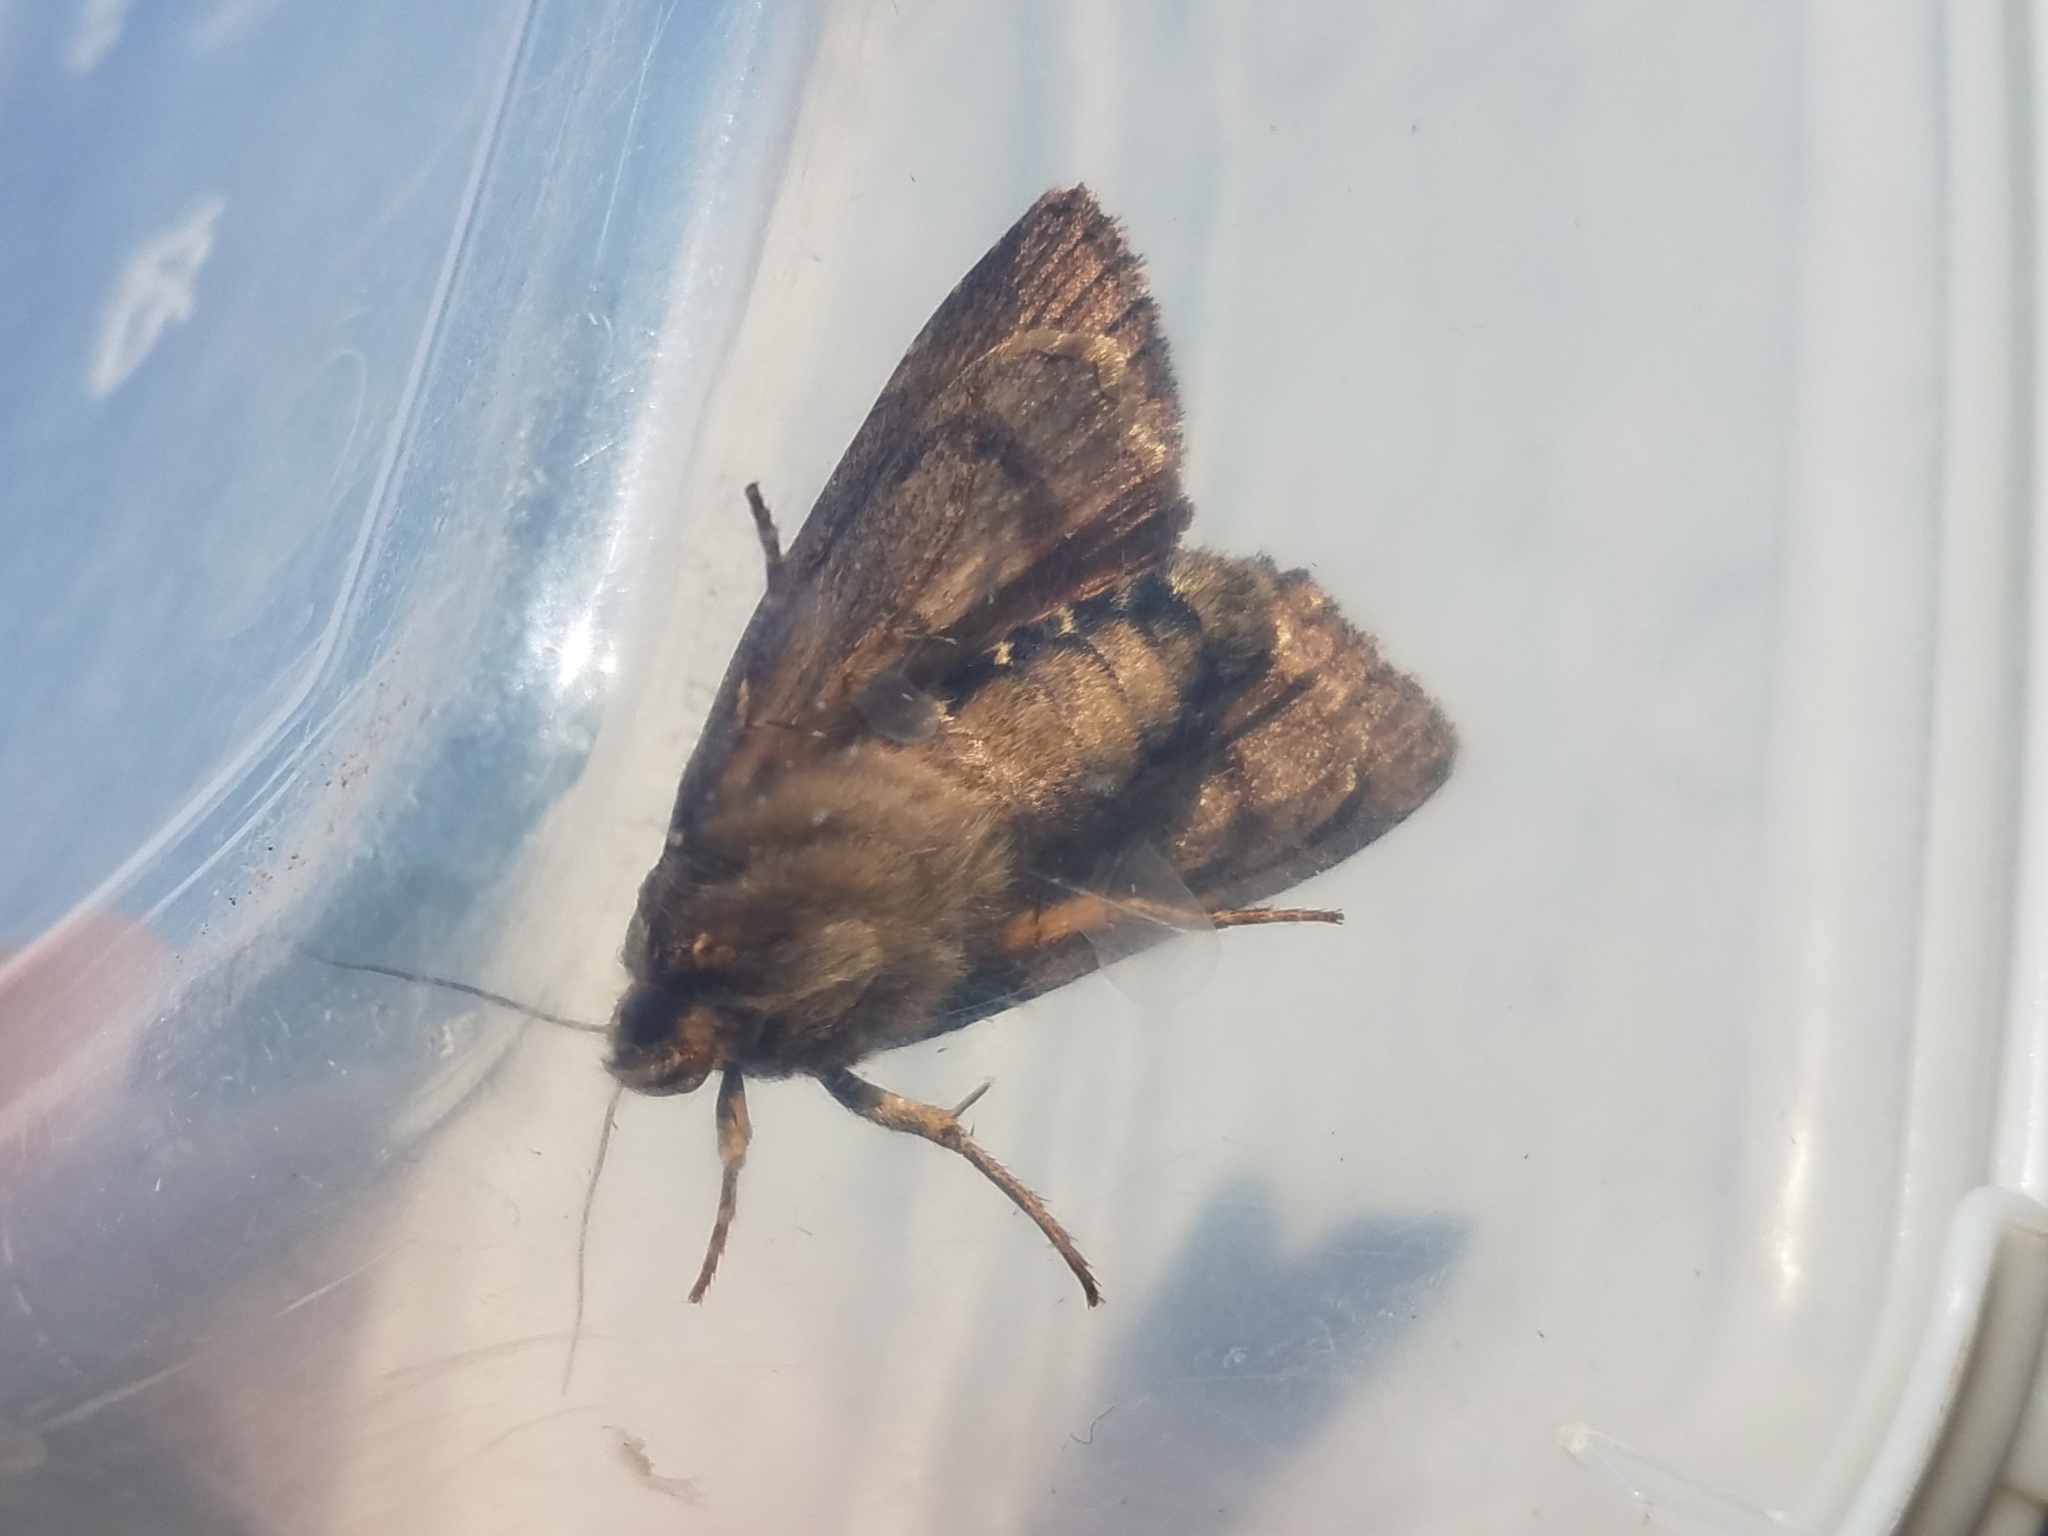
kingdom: Animalia
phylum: Arthropoda
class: Insecta
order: Lepidoptera
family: Noctuidae
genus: Amphipyra
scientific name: Amphipyra pyramidea
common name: Copper underwing
